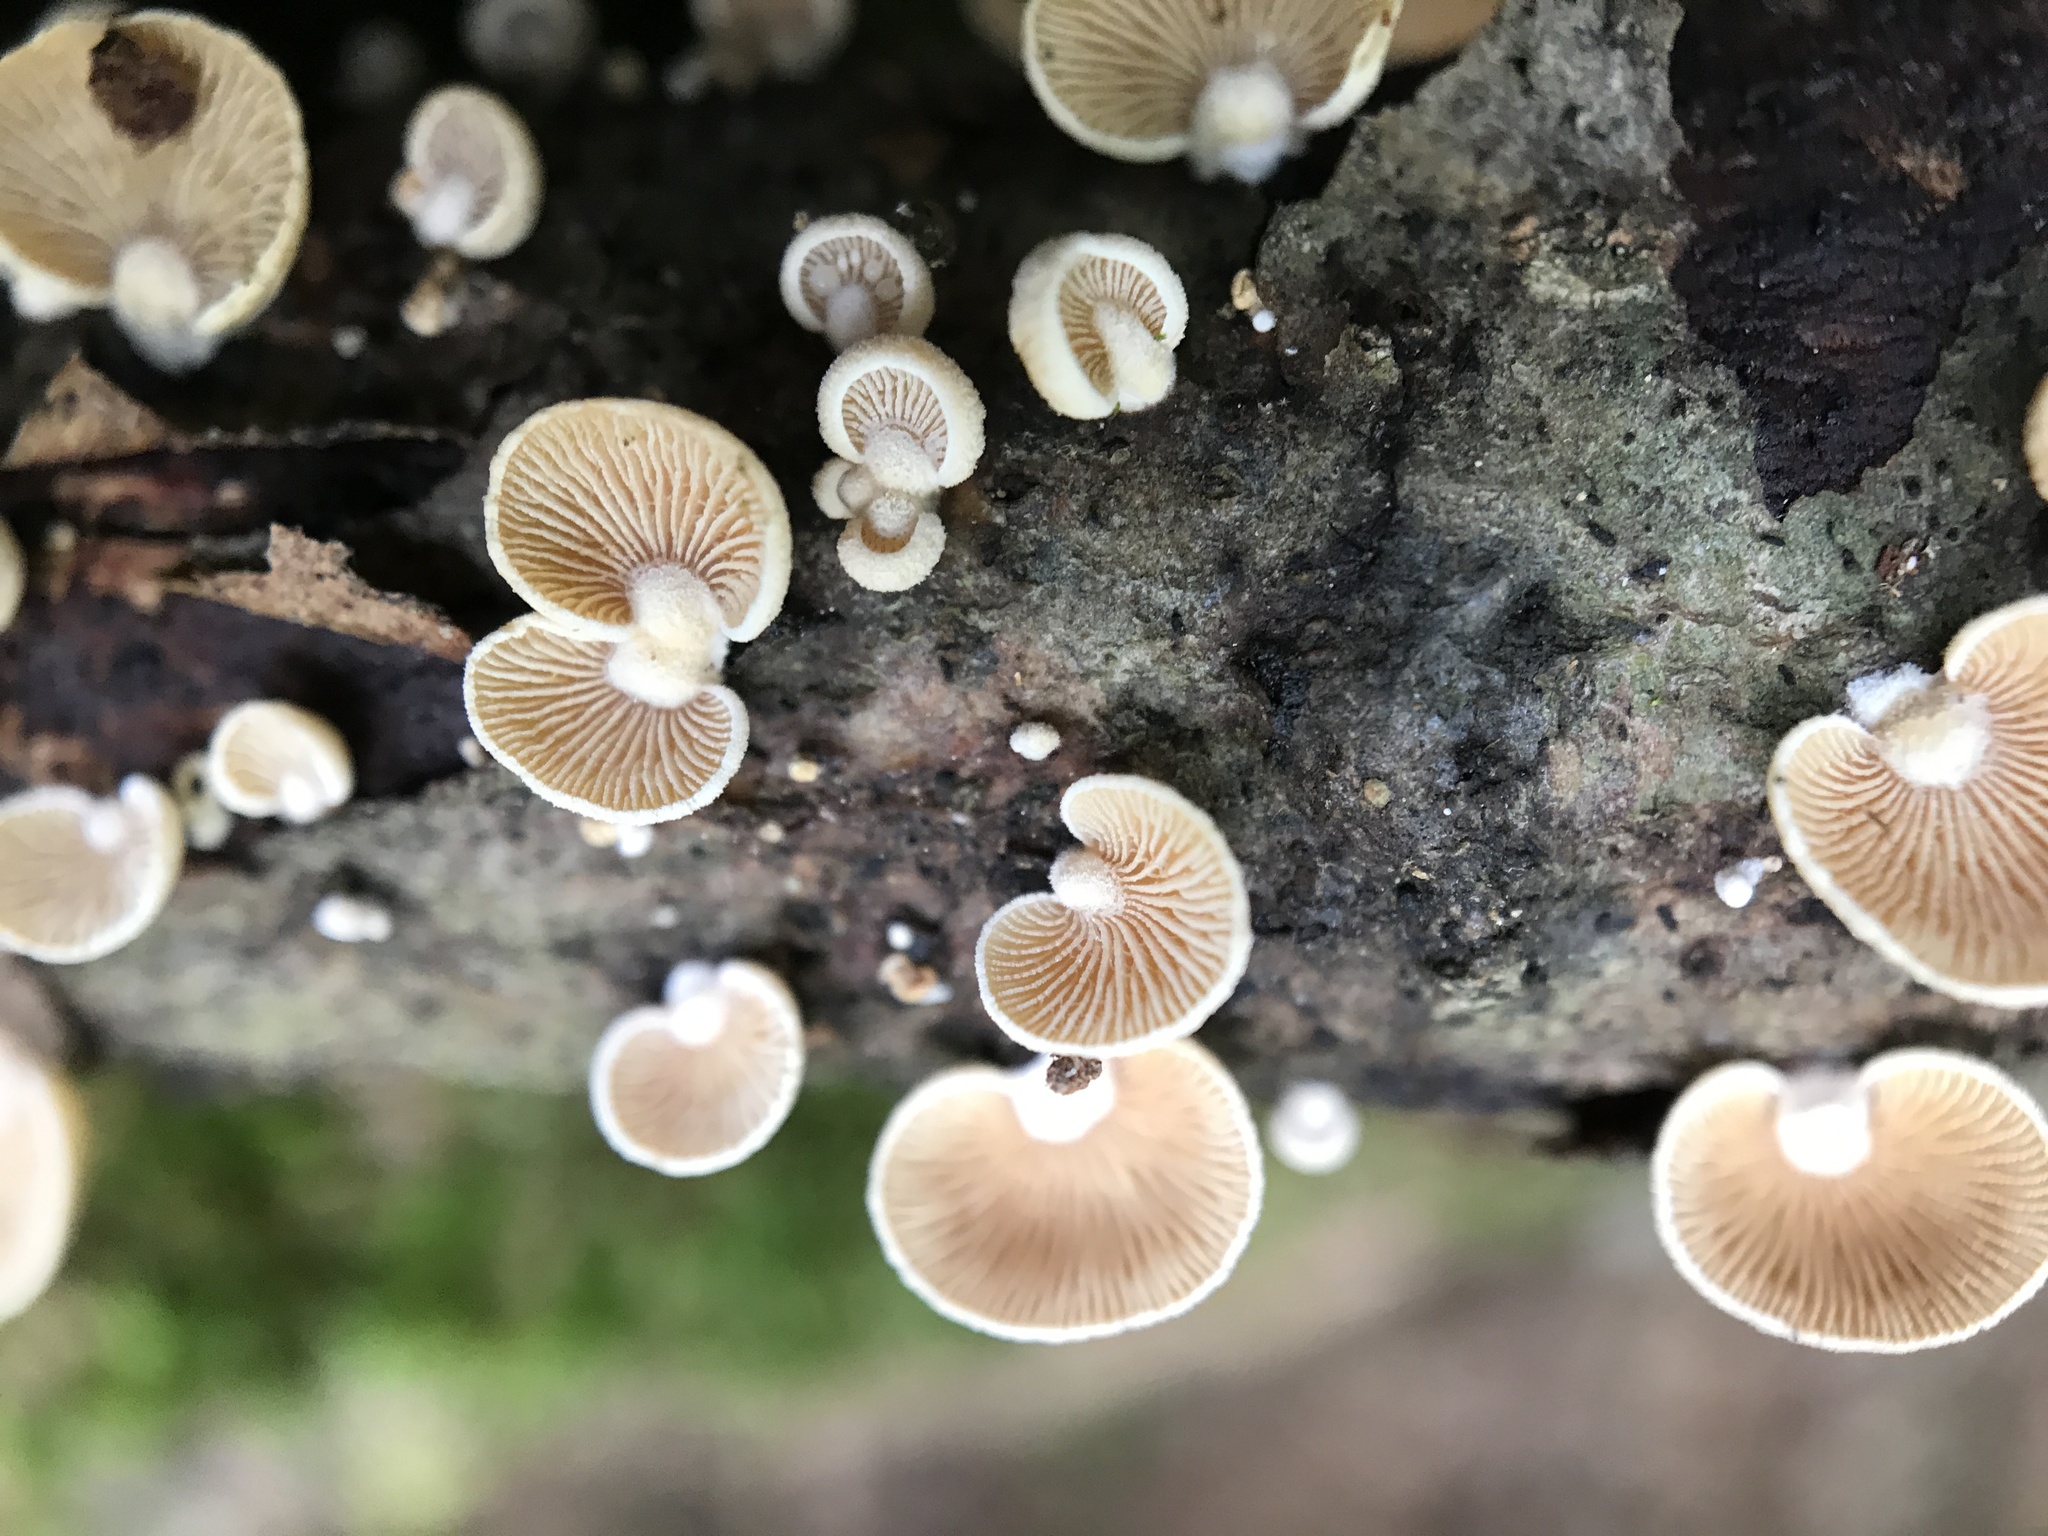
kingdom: Fungi
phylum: Basidiomycota
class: Agaricomycetes
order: Agaricales
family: Mycenaceae
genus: Panellus
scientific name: Panellus stipticus
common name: Bitter oysterling
